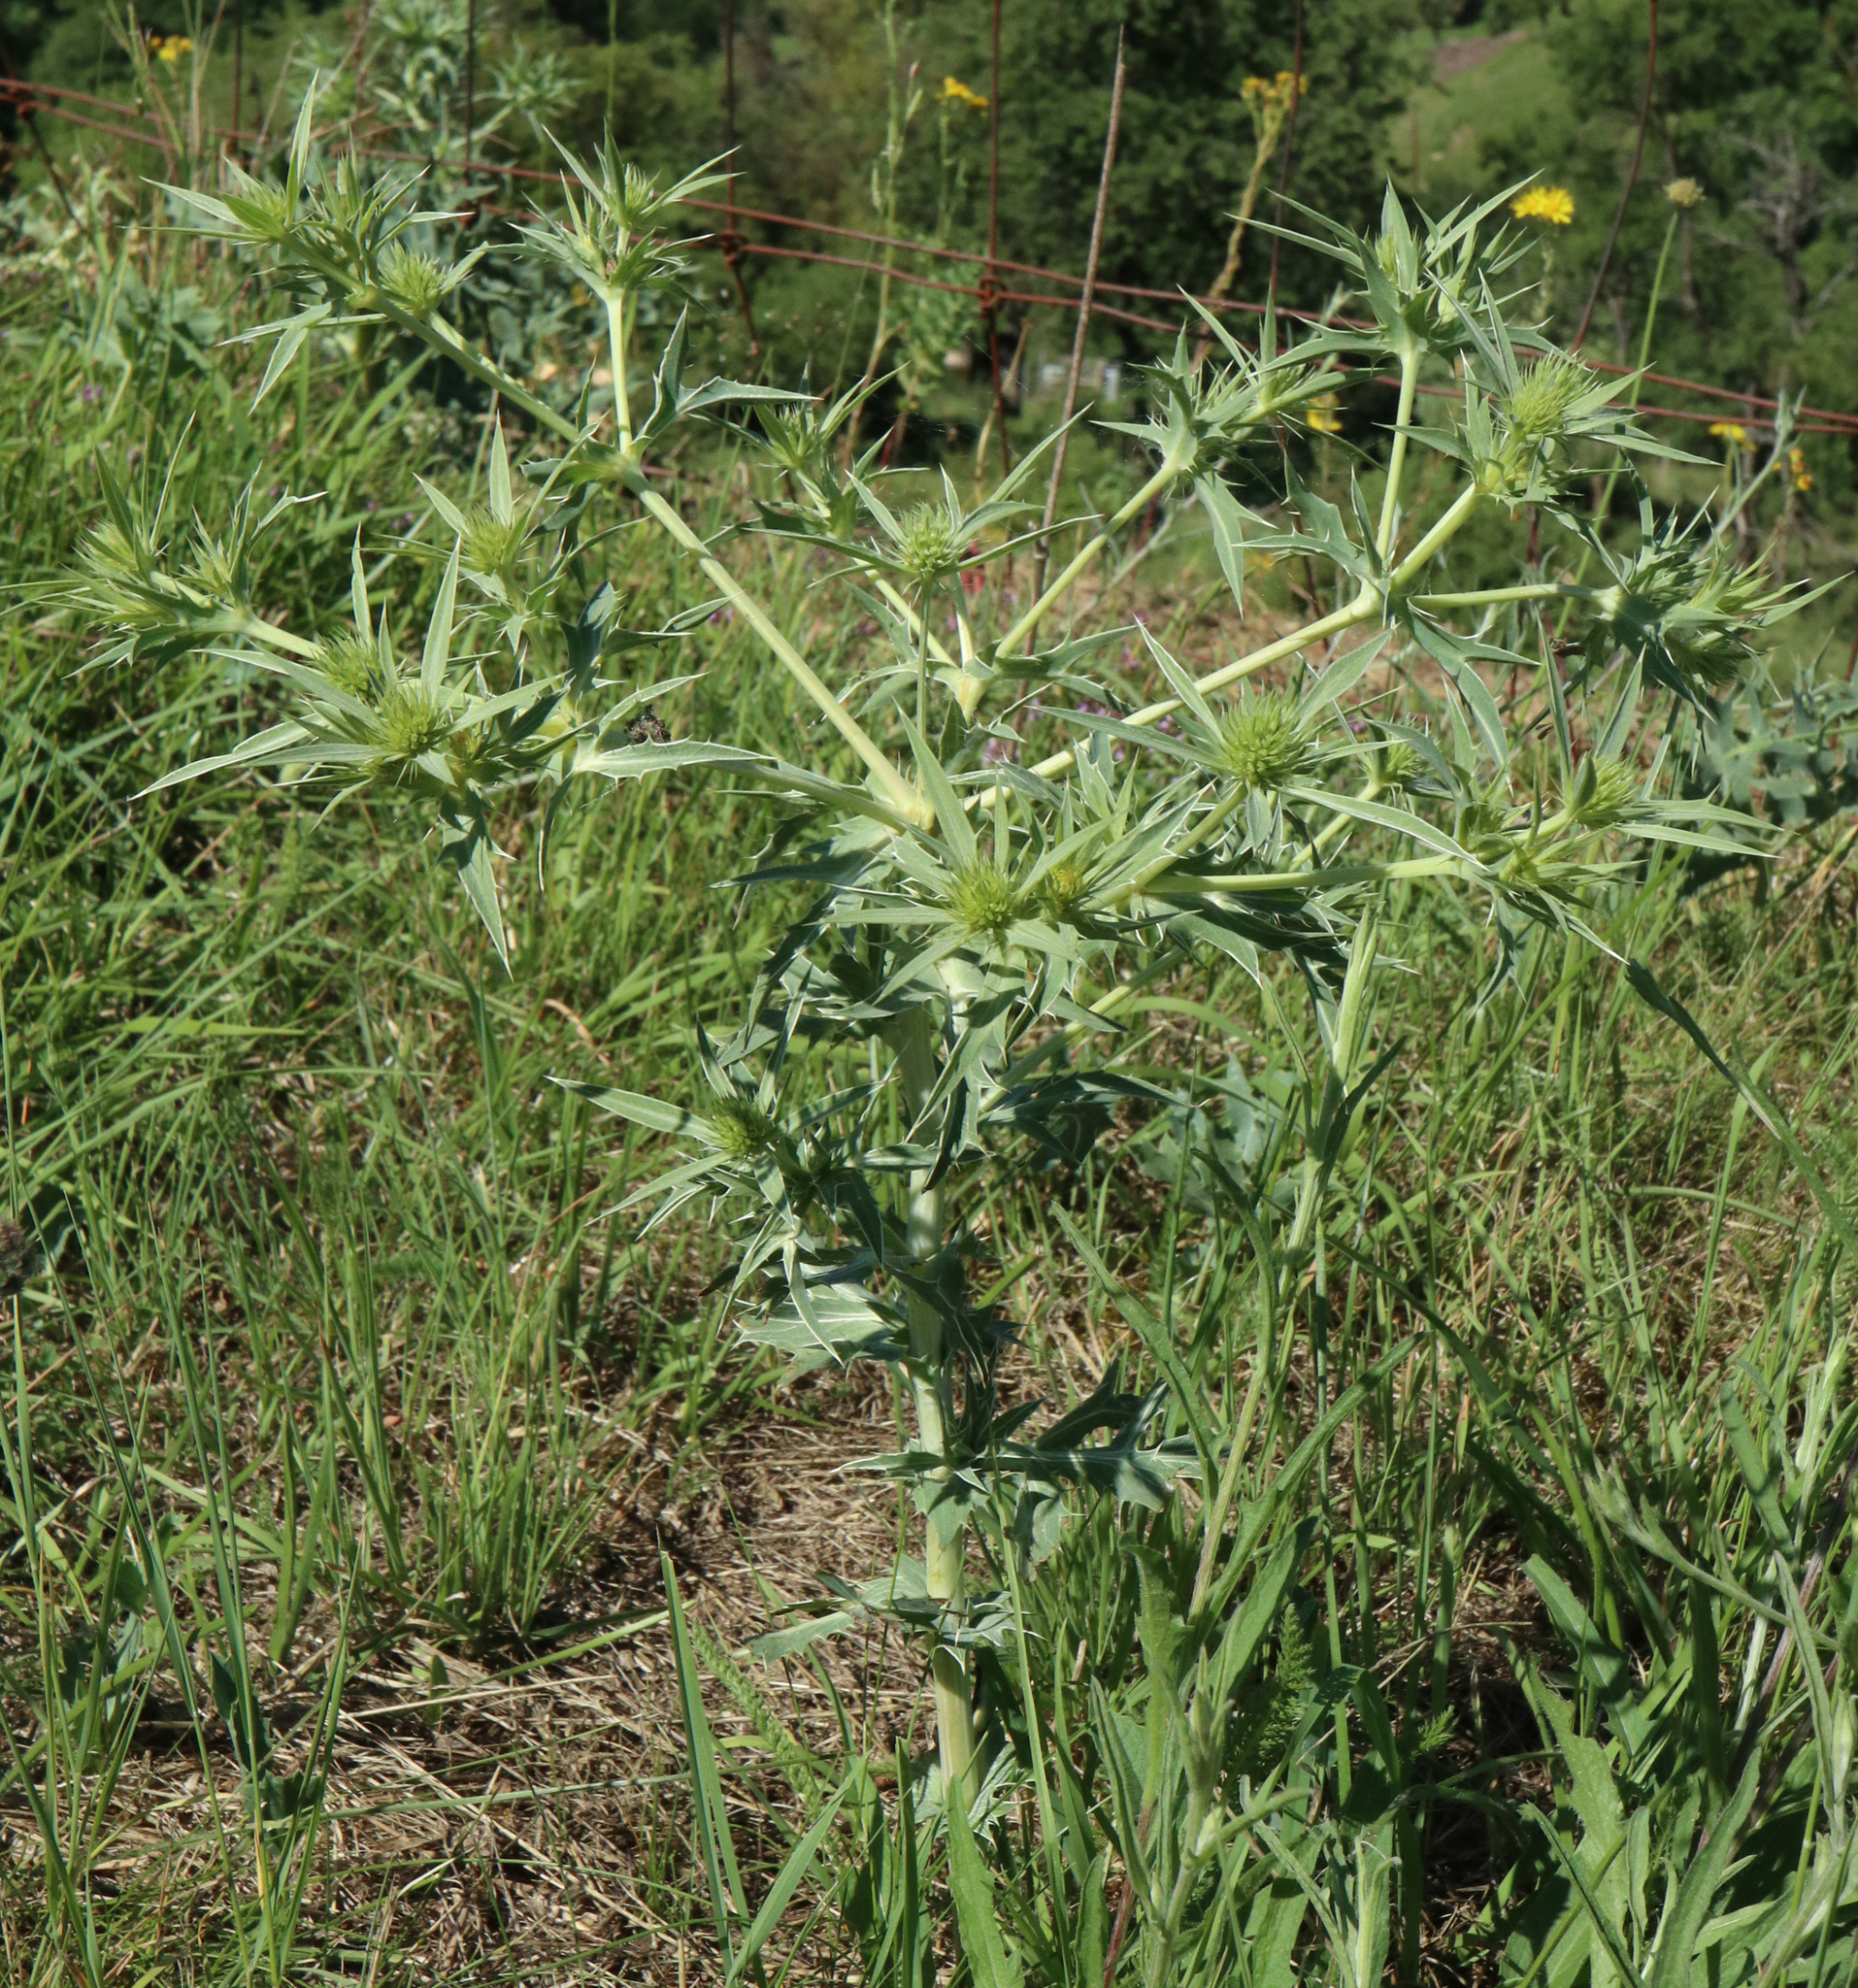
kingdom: Plantae
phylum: Tracheophyta
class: Magnoliopsida
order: Apiales
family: Apiaceae
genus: Eryngium
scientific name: Eryngium campestre
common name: Field eryngo
